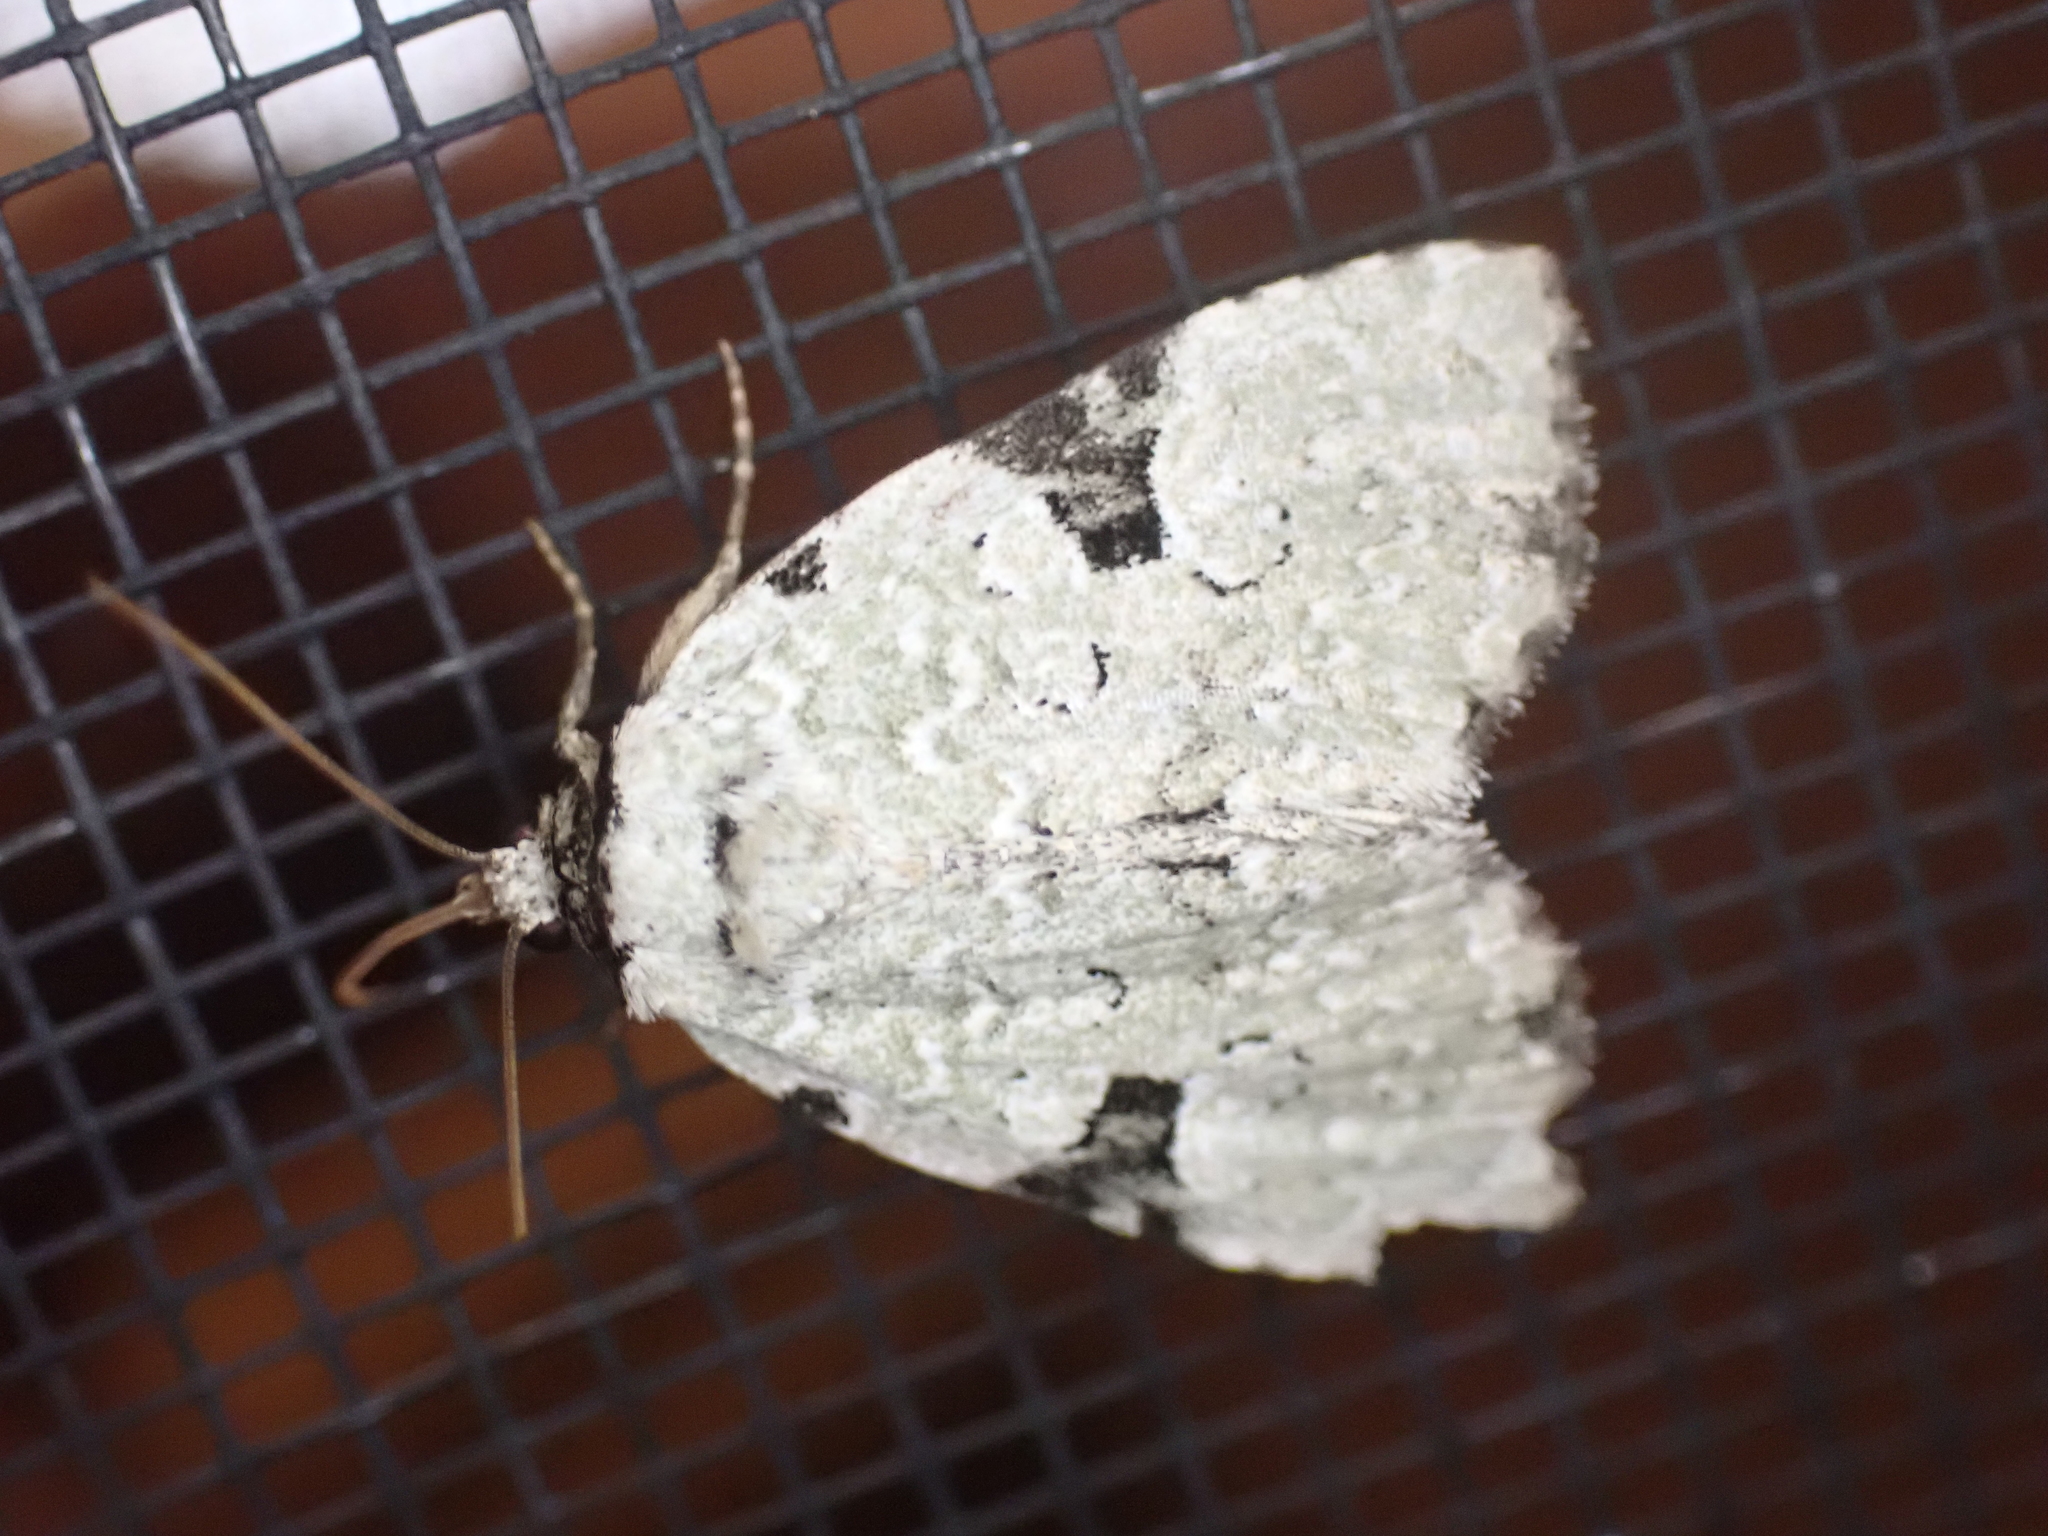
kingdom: Animalia
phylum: Arthropoda
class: Insecta
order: Lepidoptera
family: Noctuidae
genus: Leuconycta
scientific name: Leuconycta diphteroides
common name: Green leuconycta moth
